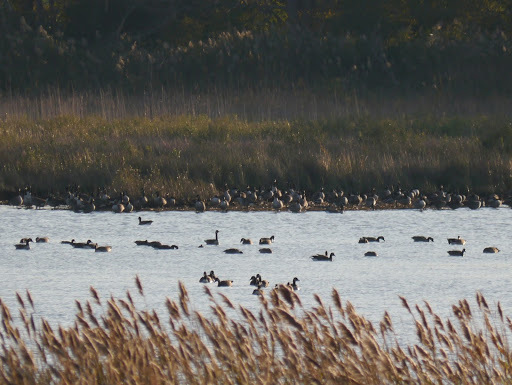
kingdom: Animalia
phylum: Chordata
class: Aves
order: Anseriformes
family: Anatidae
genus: Branta
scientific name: Branta canadensis
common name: Canada goose
